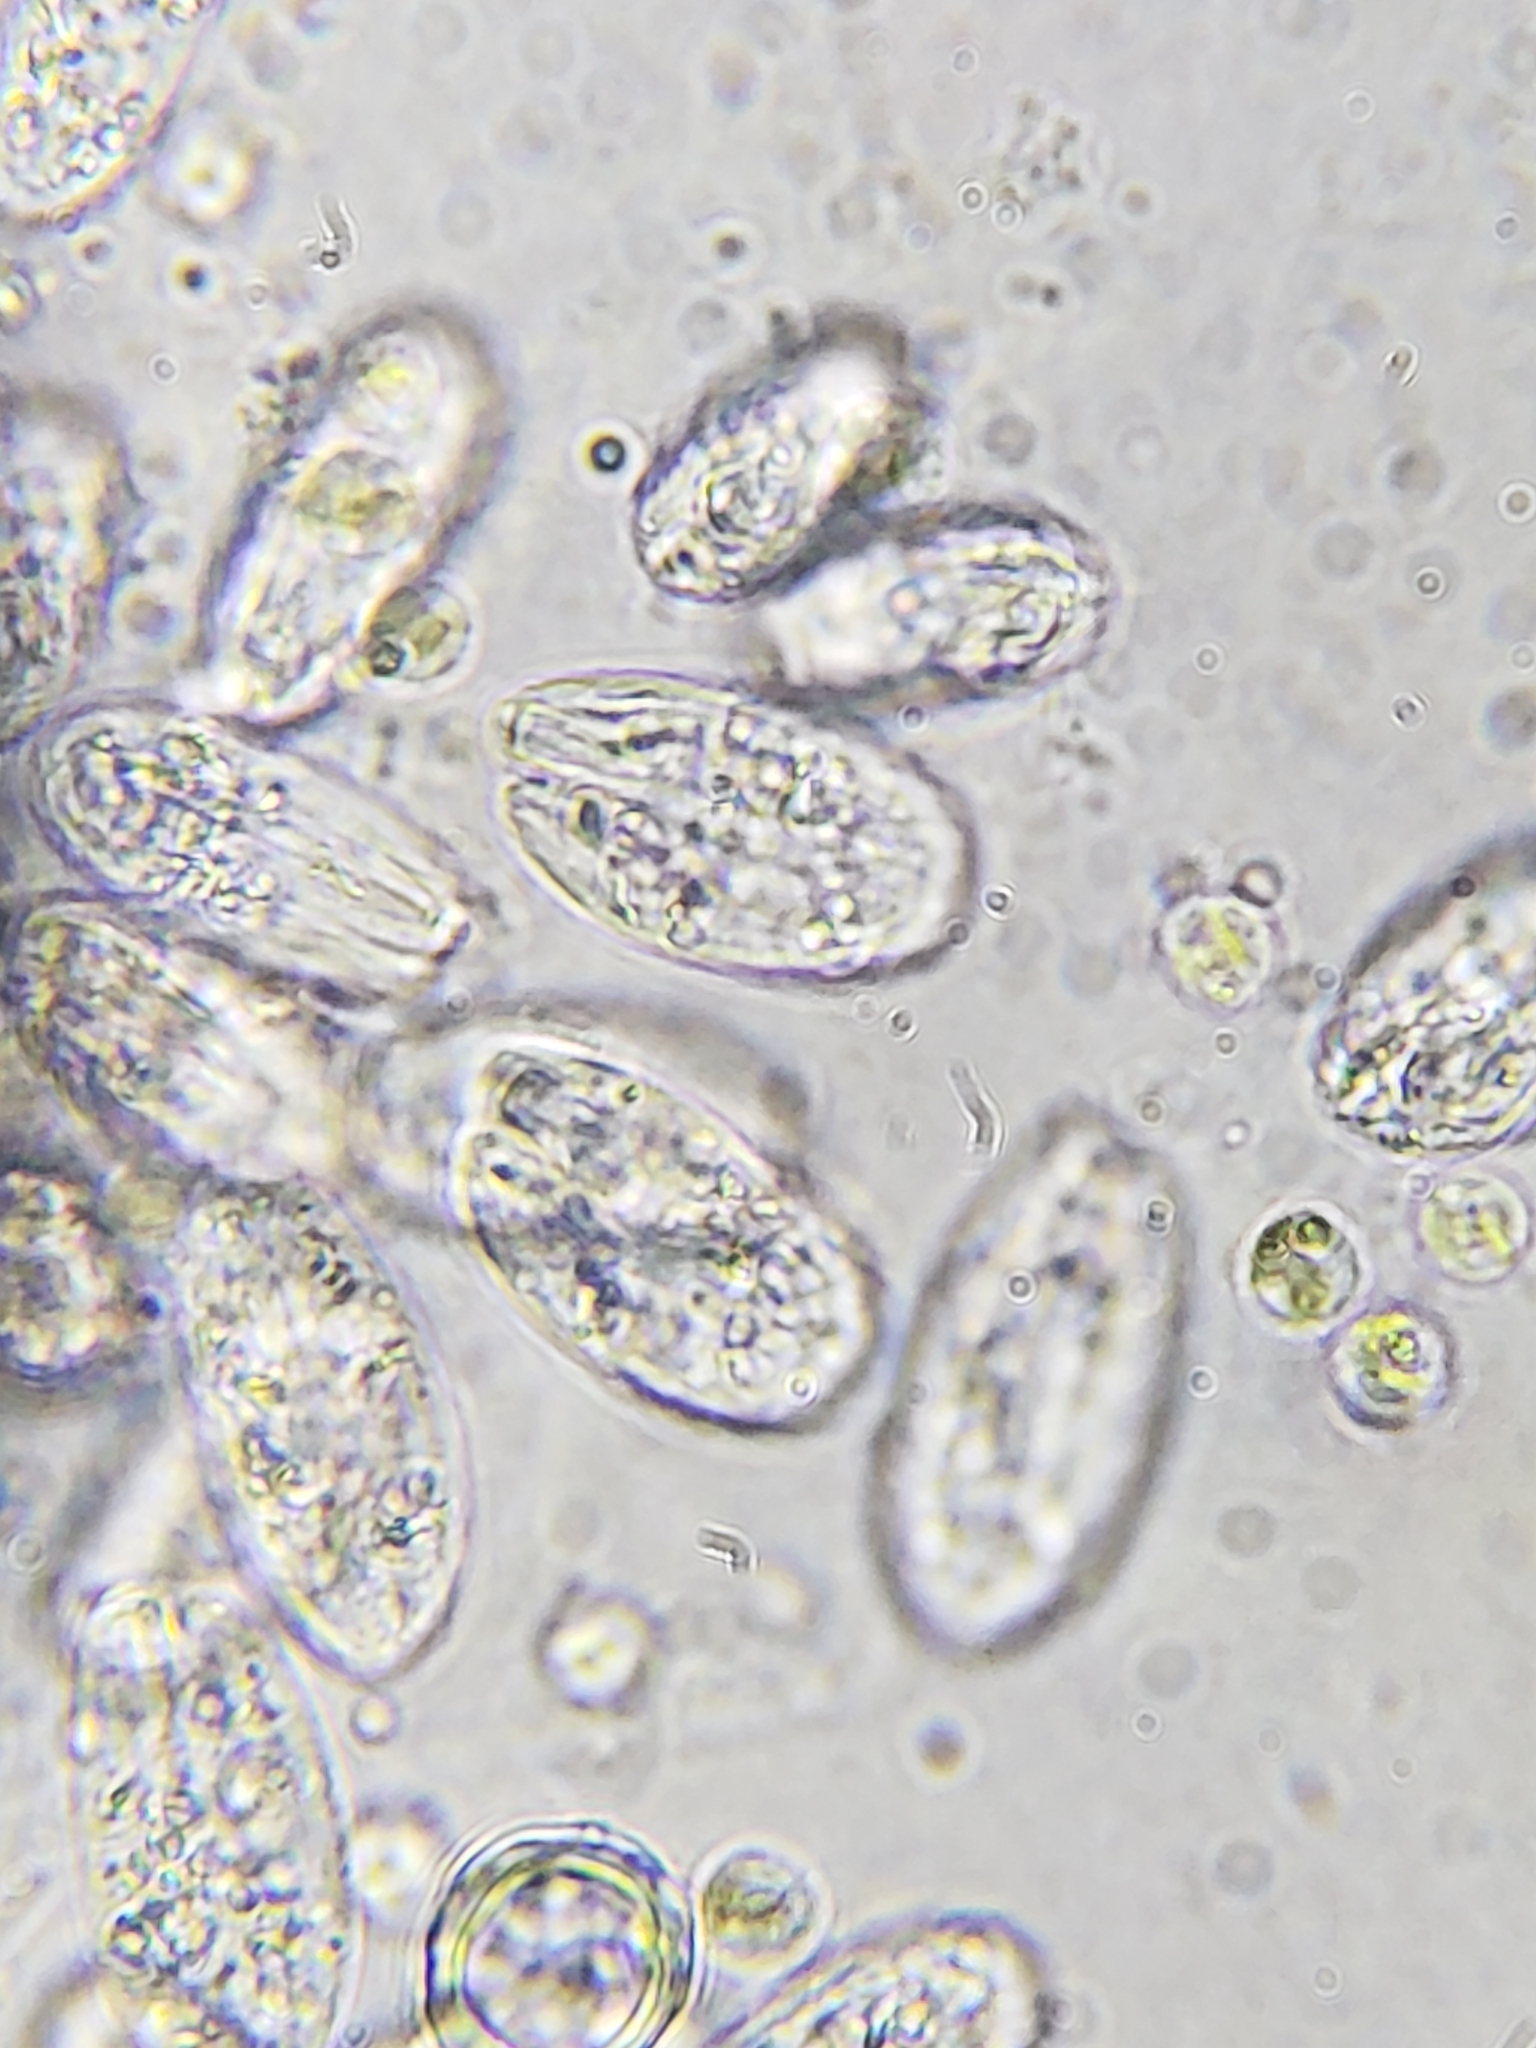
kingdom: Protozoa
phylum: Euglenozoa
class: Entosiphonea
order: Entosiphonida
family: Entosiphonidae
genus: Entosiphon
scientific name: Entosiphon sulcatus
